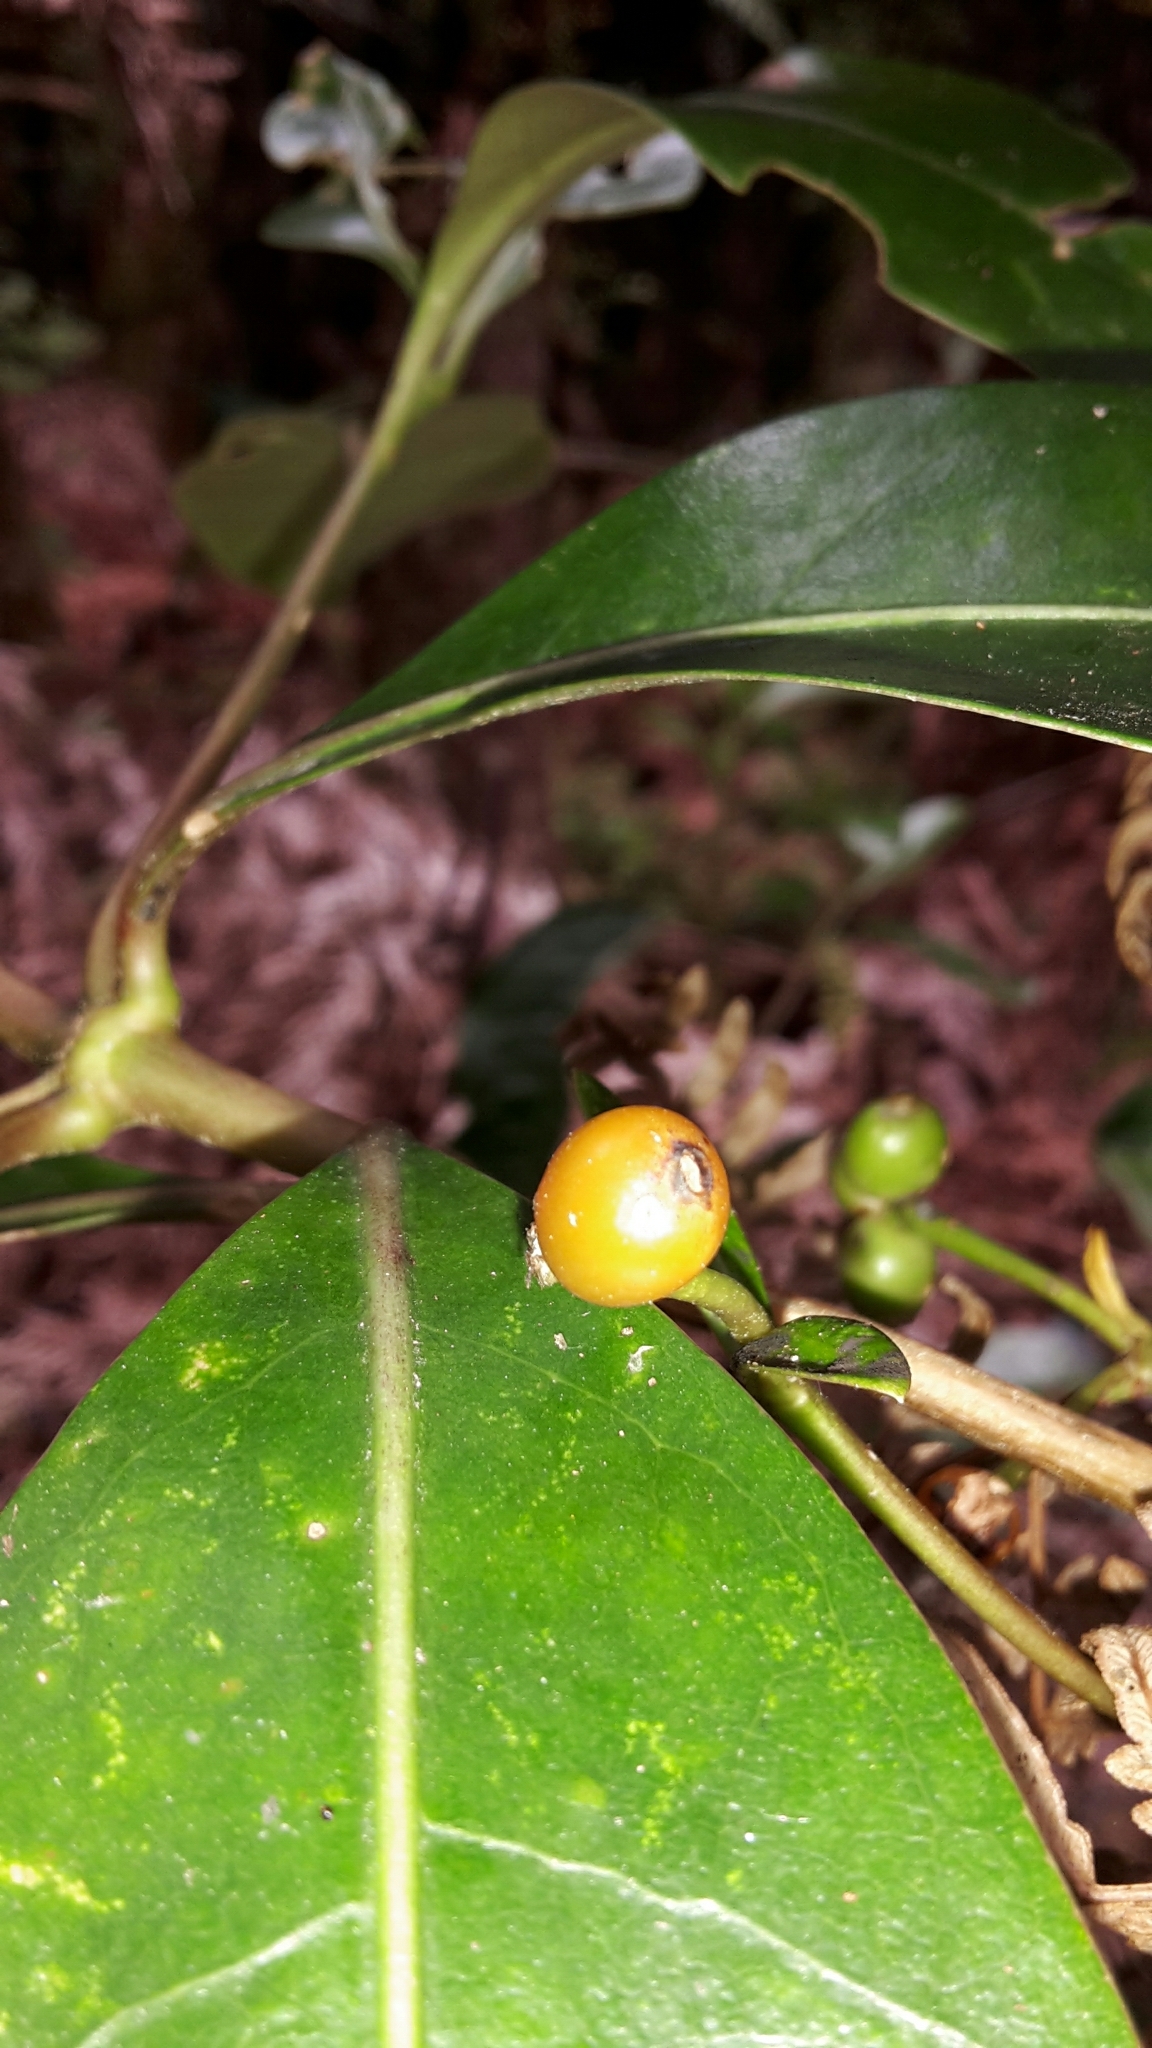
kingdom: Plantae
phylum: Tracheophyta
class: Magnoliopsida
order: Gentianales
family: Rubiaceae
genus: Coprosma
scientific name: Coprosma lucida
